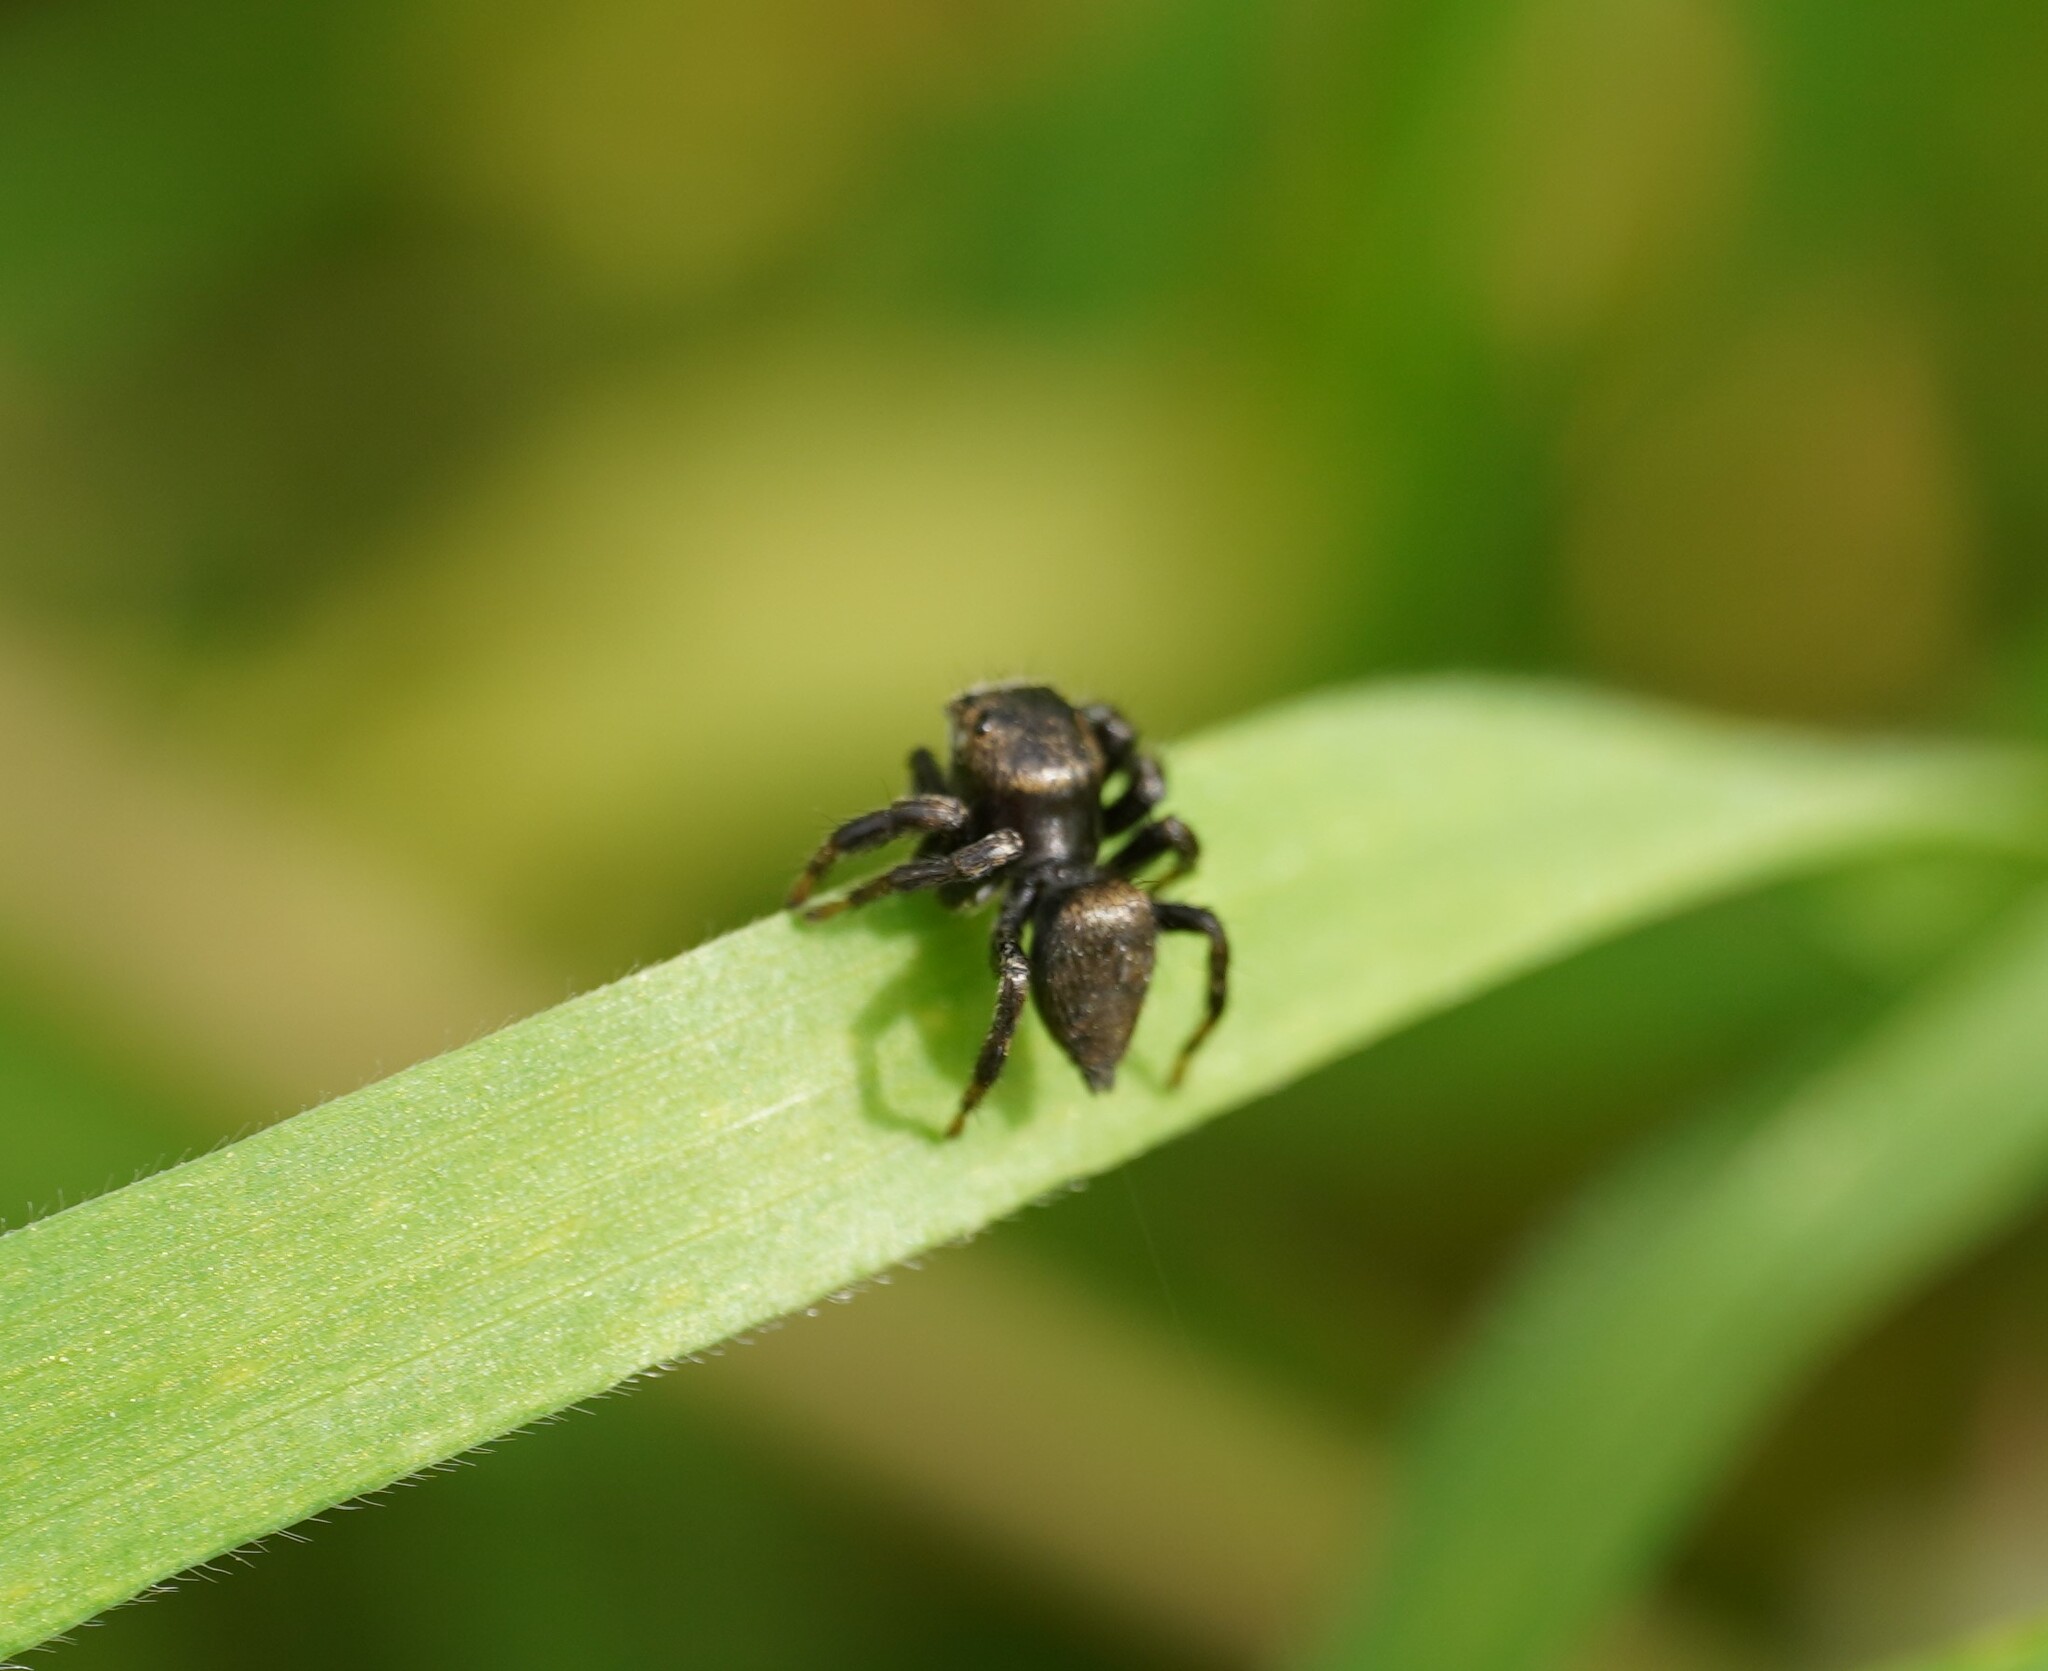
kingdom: Animalia
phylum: Arthropoda
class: Arachnida
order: Araneae
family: Salticidae
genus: Evarcha
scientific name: Evarcha arcuata
